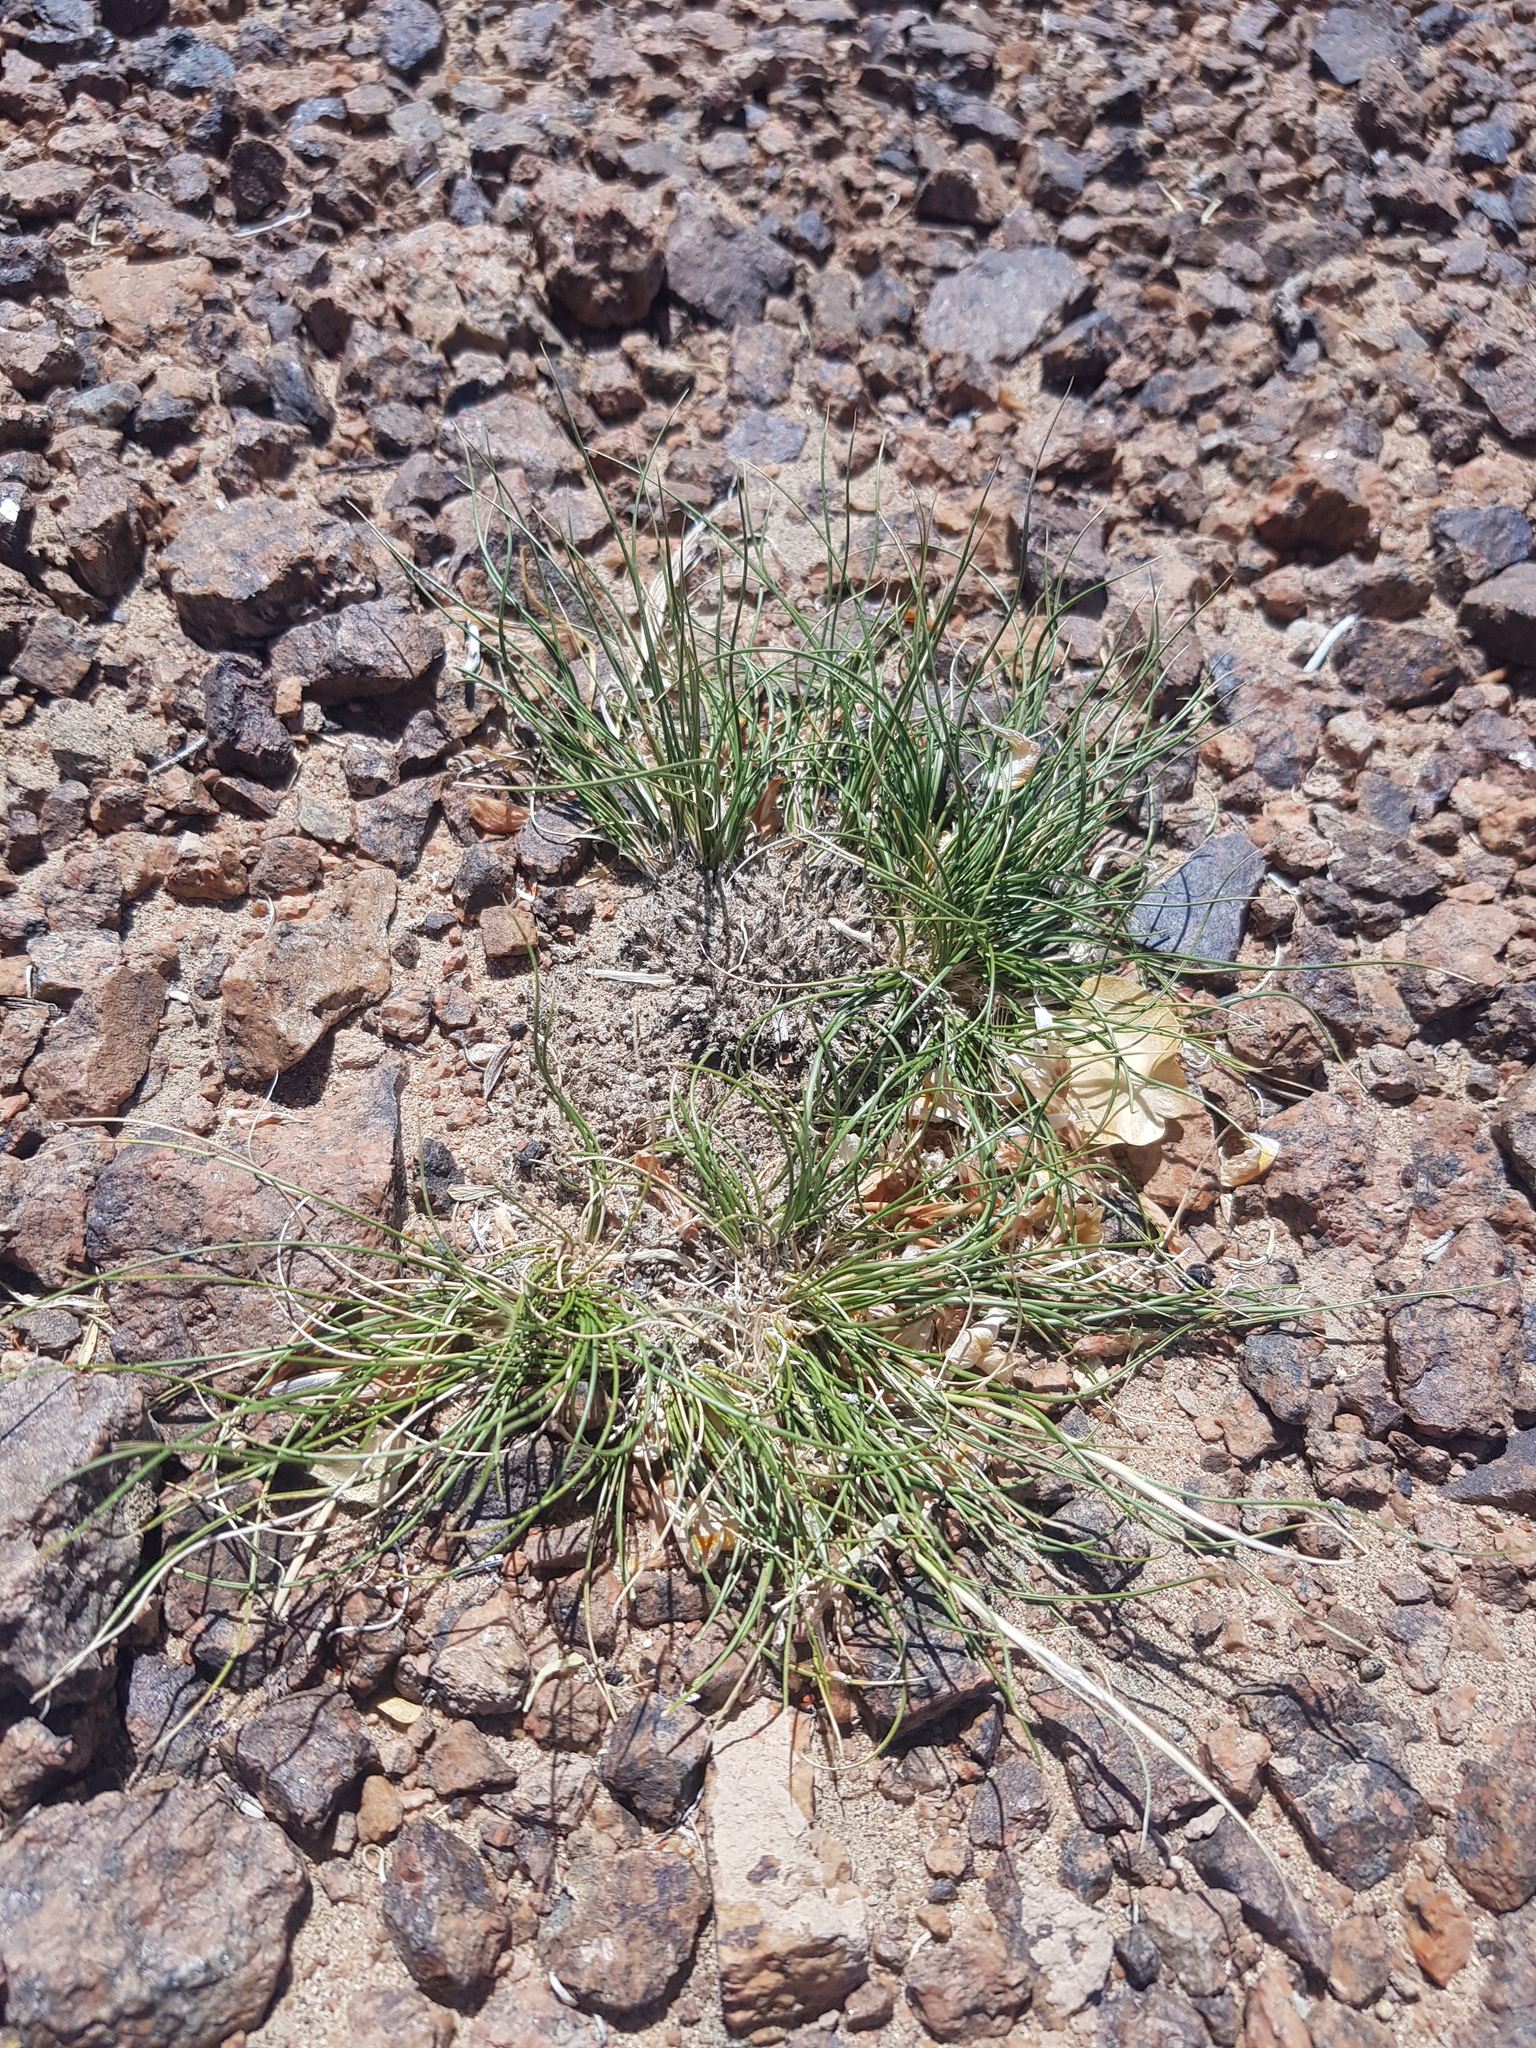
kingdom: Plantae
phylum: Tracheophyta
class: Magnoliopsida
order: Caryophyllales
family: Polygonaceae
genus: Calligonum
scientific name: Calligonum mongolicum
